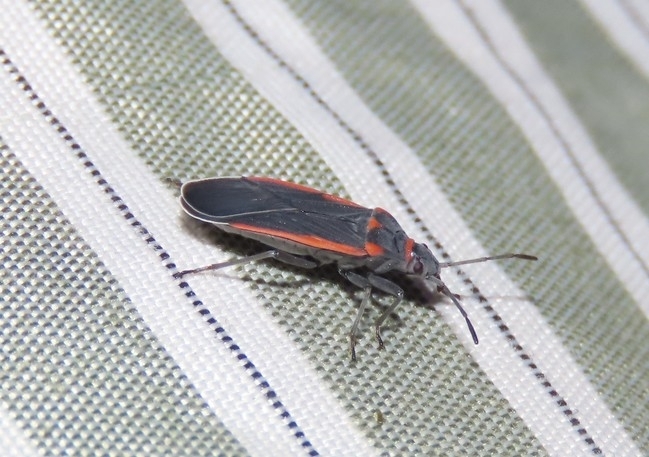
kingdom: Animalia
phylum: Arthropoda
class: Insecta
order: Hemiptera
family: Lygaeidae
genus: Melacoryphus
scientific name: Melacoryphus lateralis
